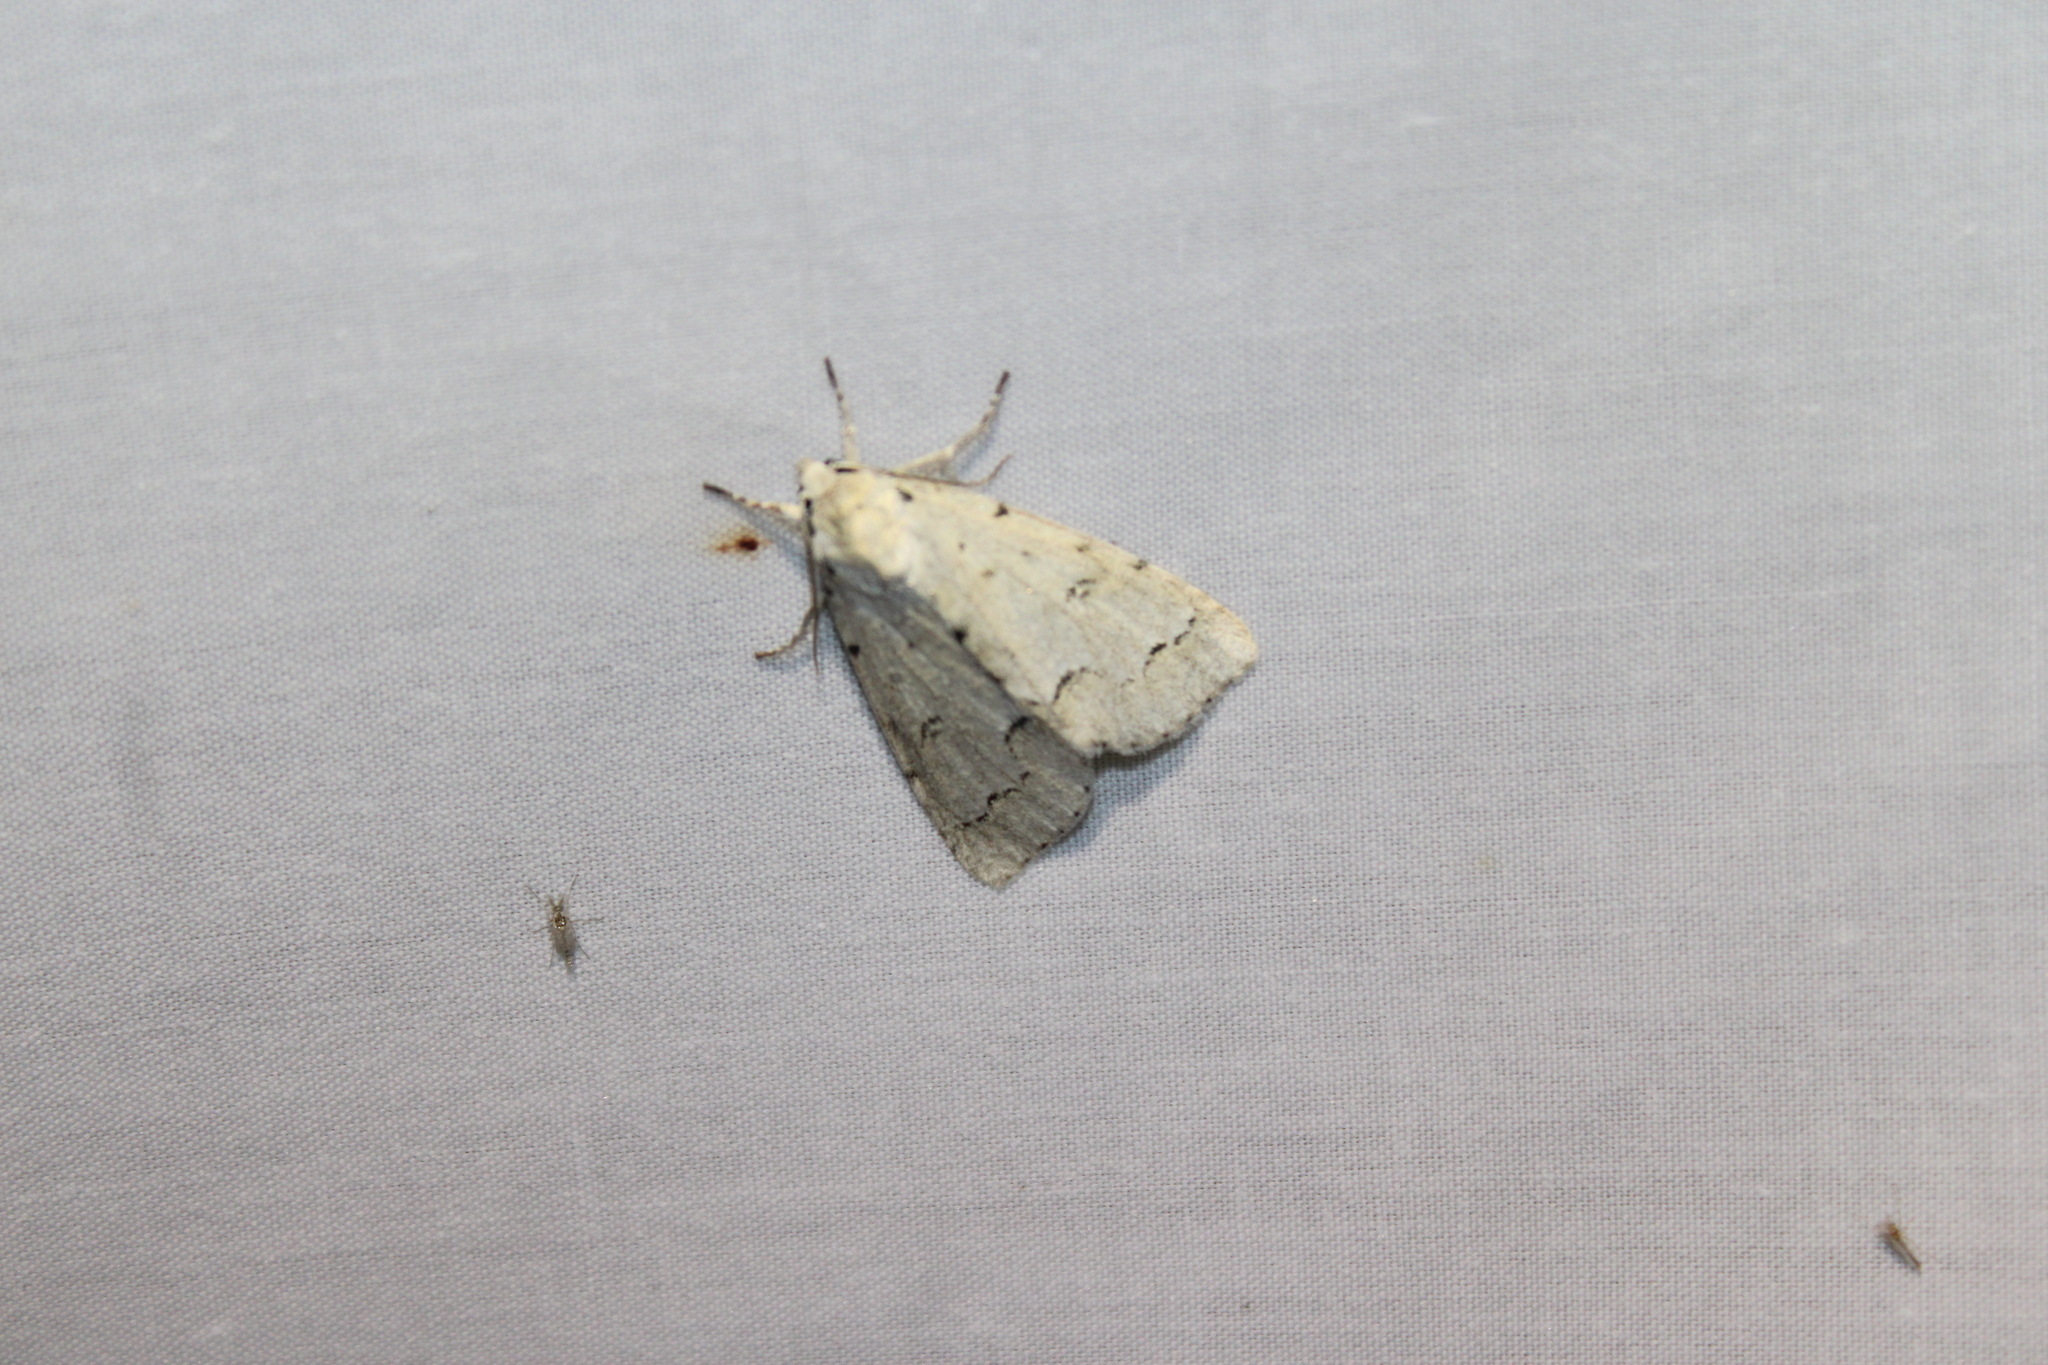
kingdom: Animalia
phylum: Arthropoda
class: Insecta
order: Lepidoptera
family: Noctuidae
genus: Acronicta
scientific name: Acronicta innotata
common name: Unmarked dagger
